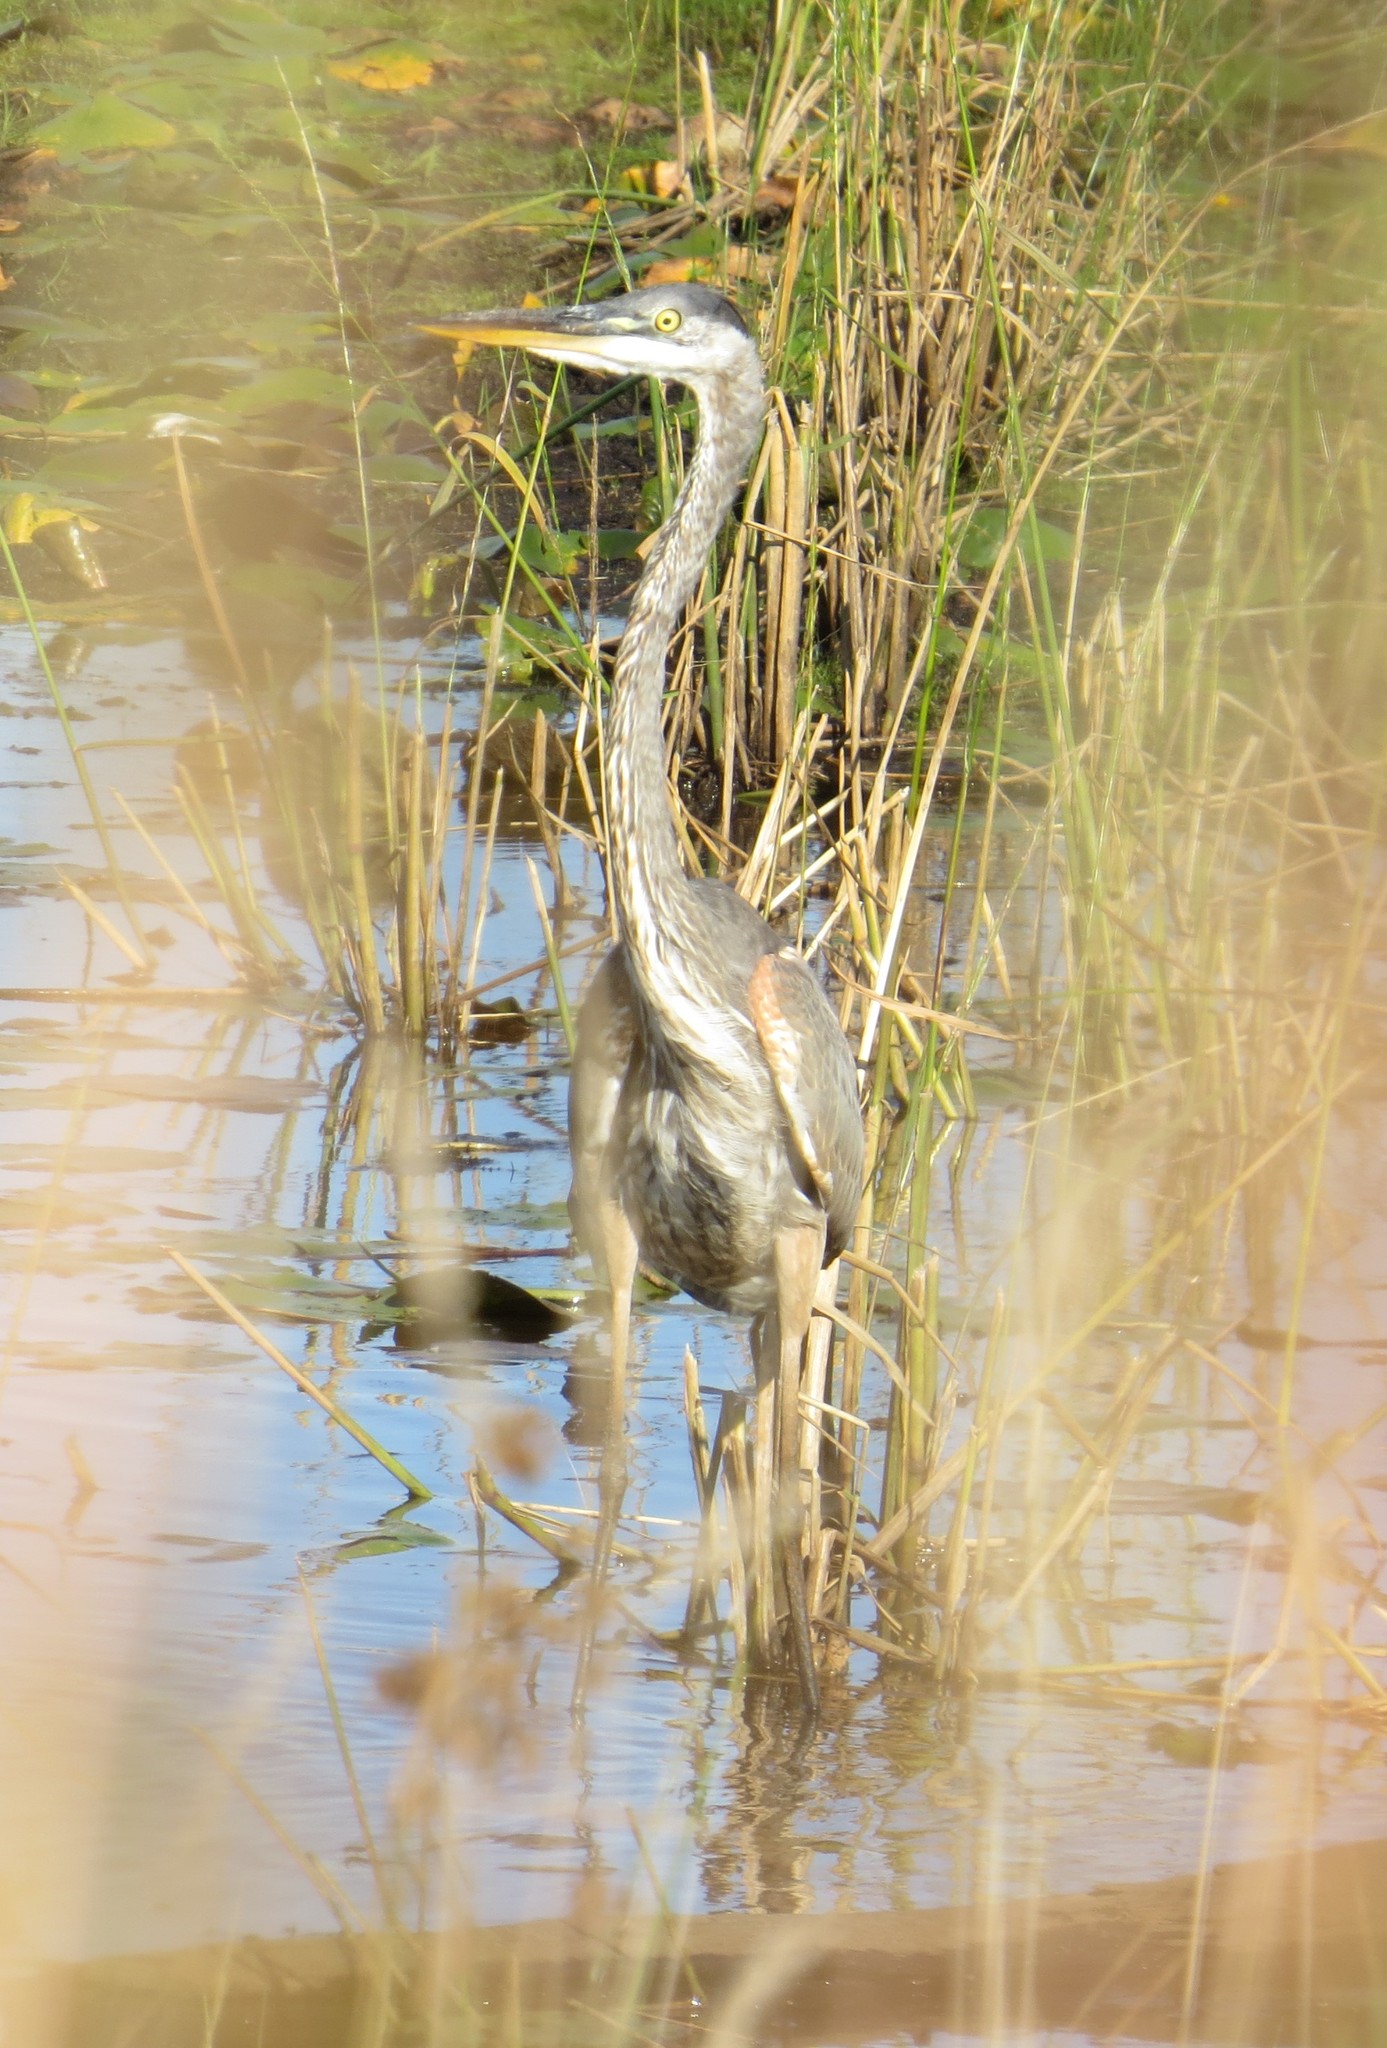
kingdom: Animalia
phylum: Chordata
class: Aves
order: Pelecaniformes
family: Ardeidae
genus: Ardea
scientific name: Ardea herodias
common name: Great blue heron
